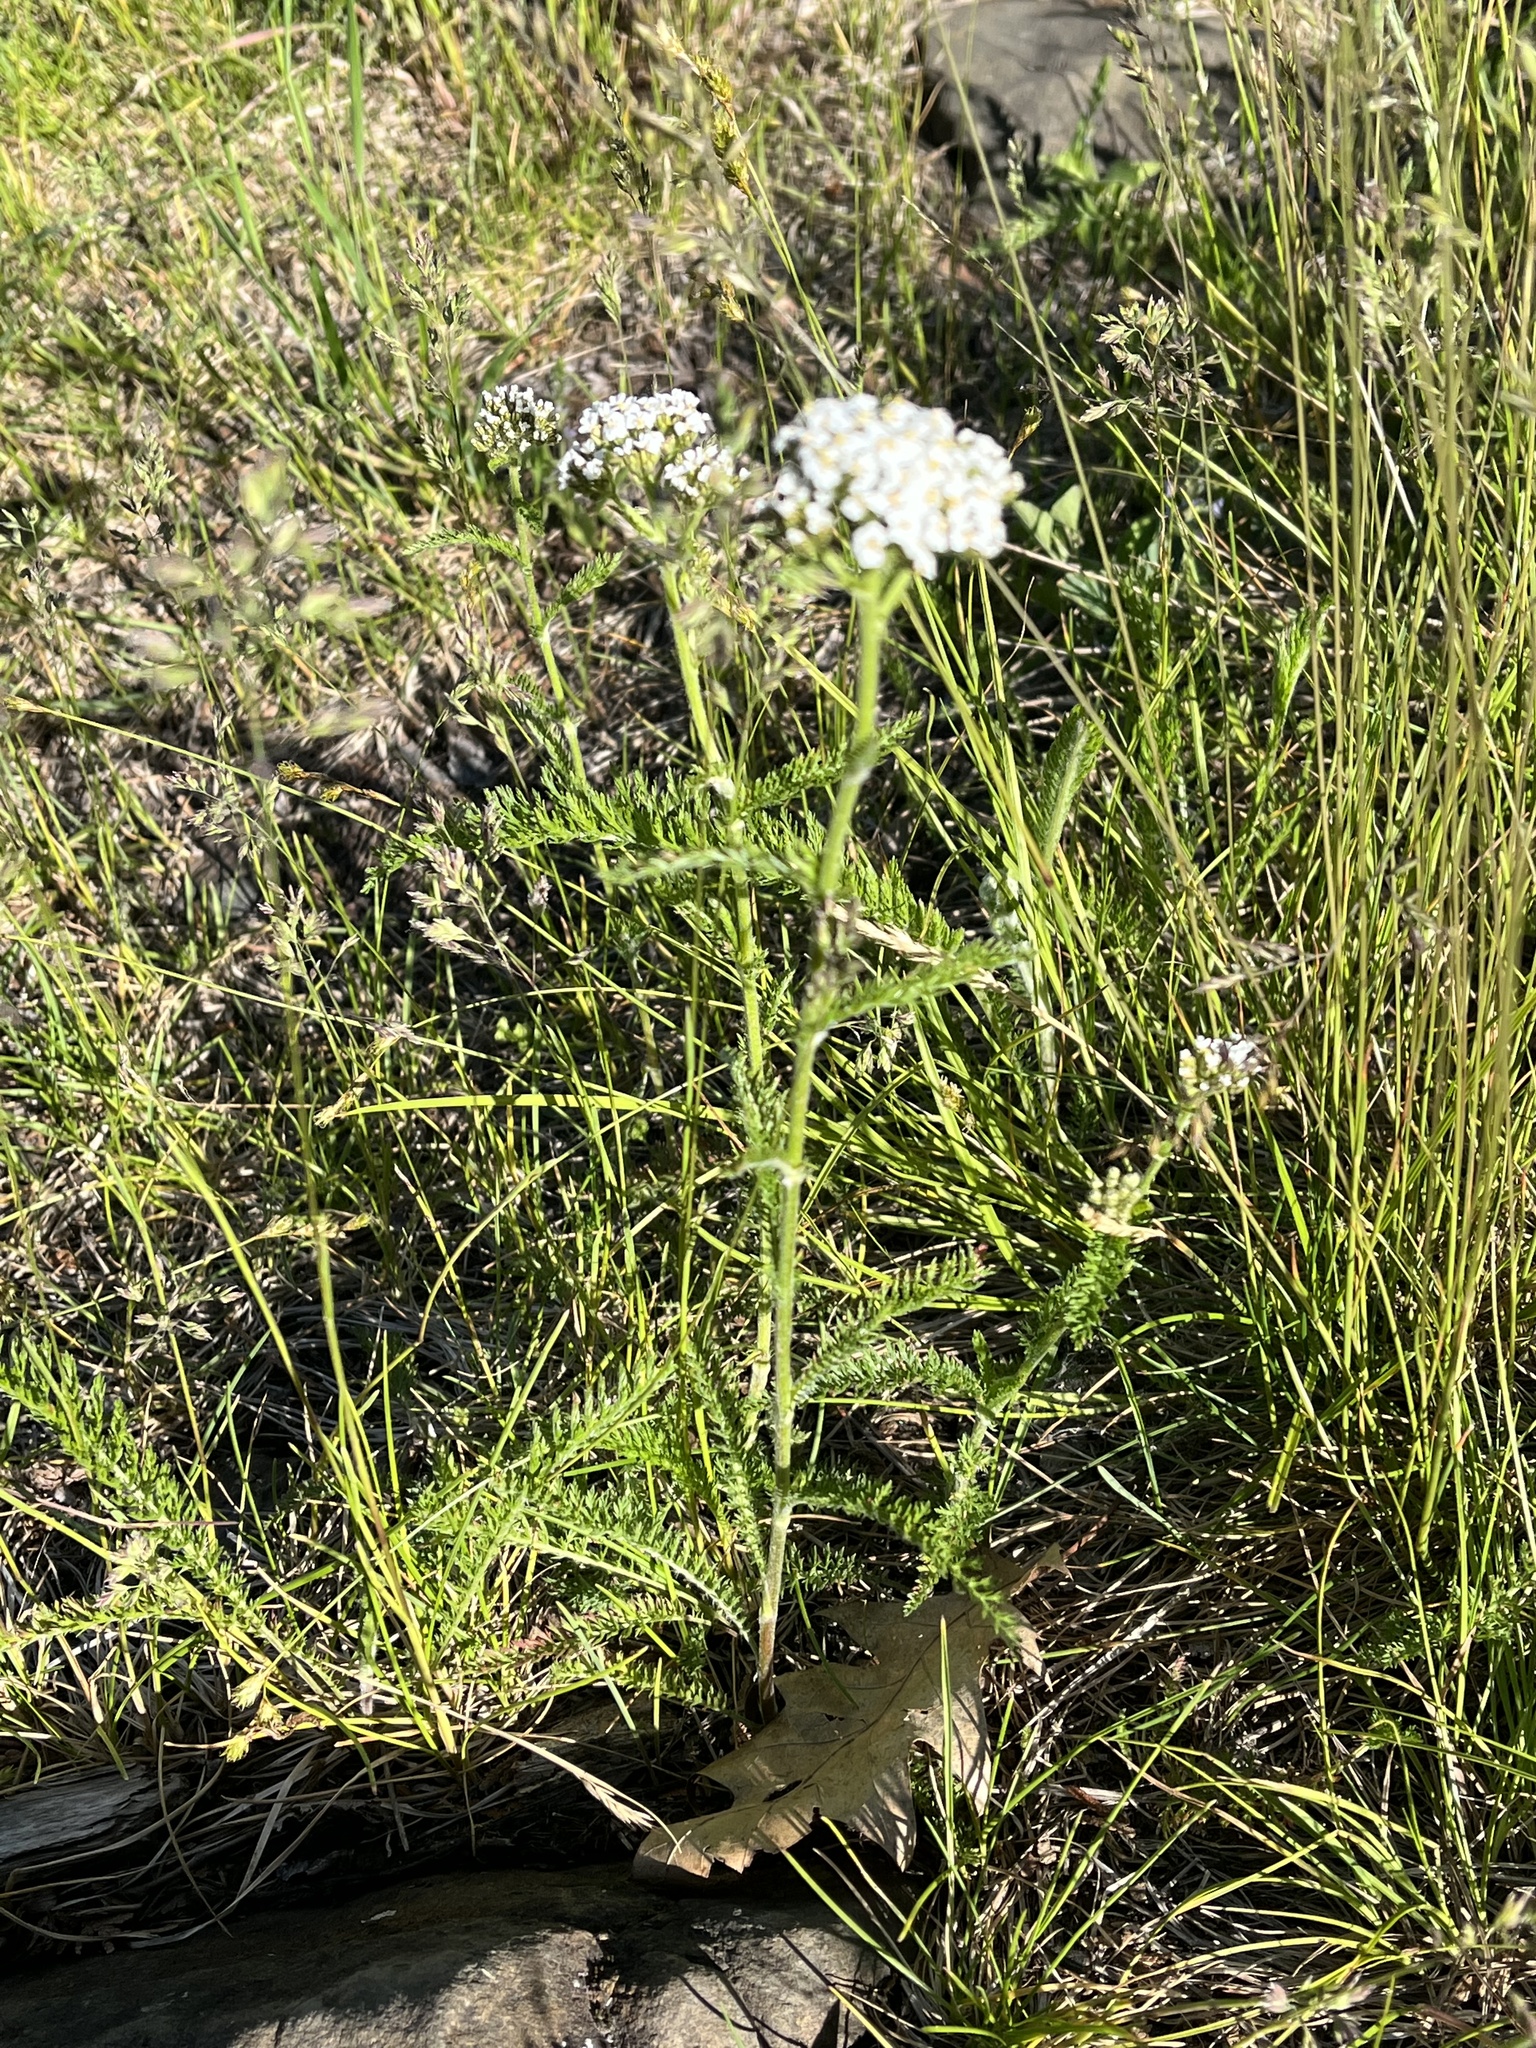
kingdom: Plantae
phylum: Tracheophyta
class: Magnoliopsida
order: Asterales
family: Asteraceae
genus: Achillea
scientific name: Achillea millefolium
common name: Yarrow
